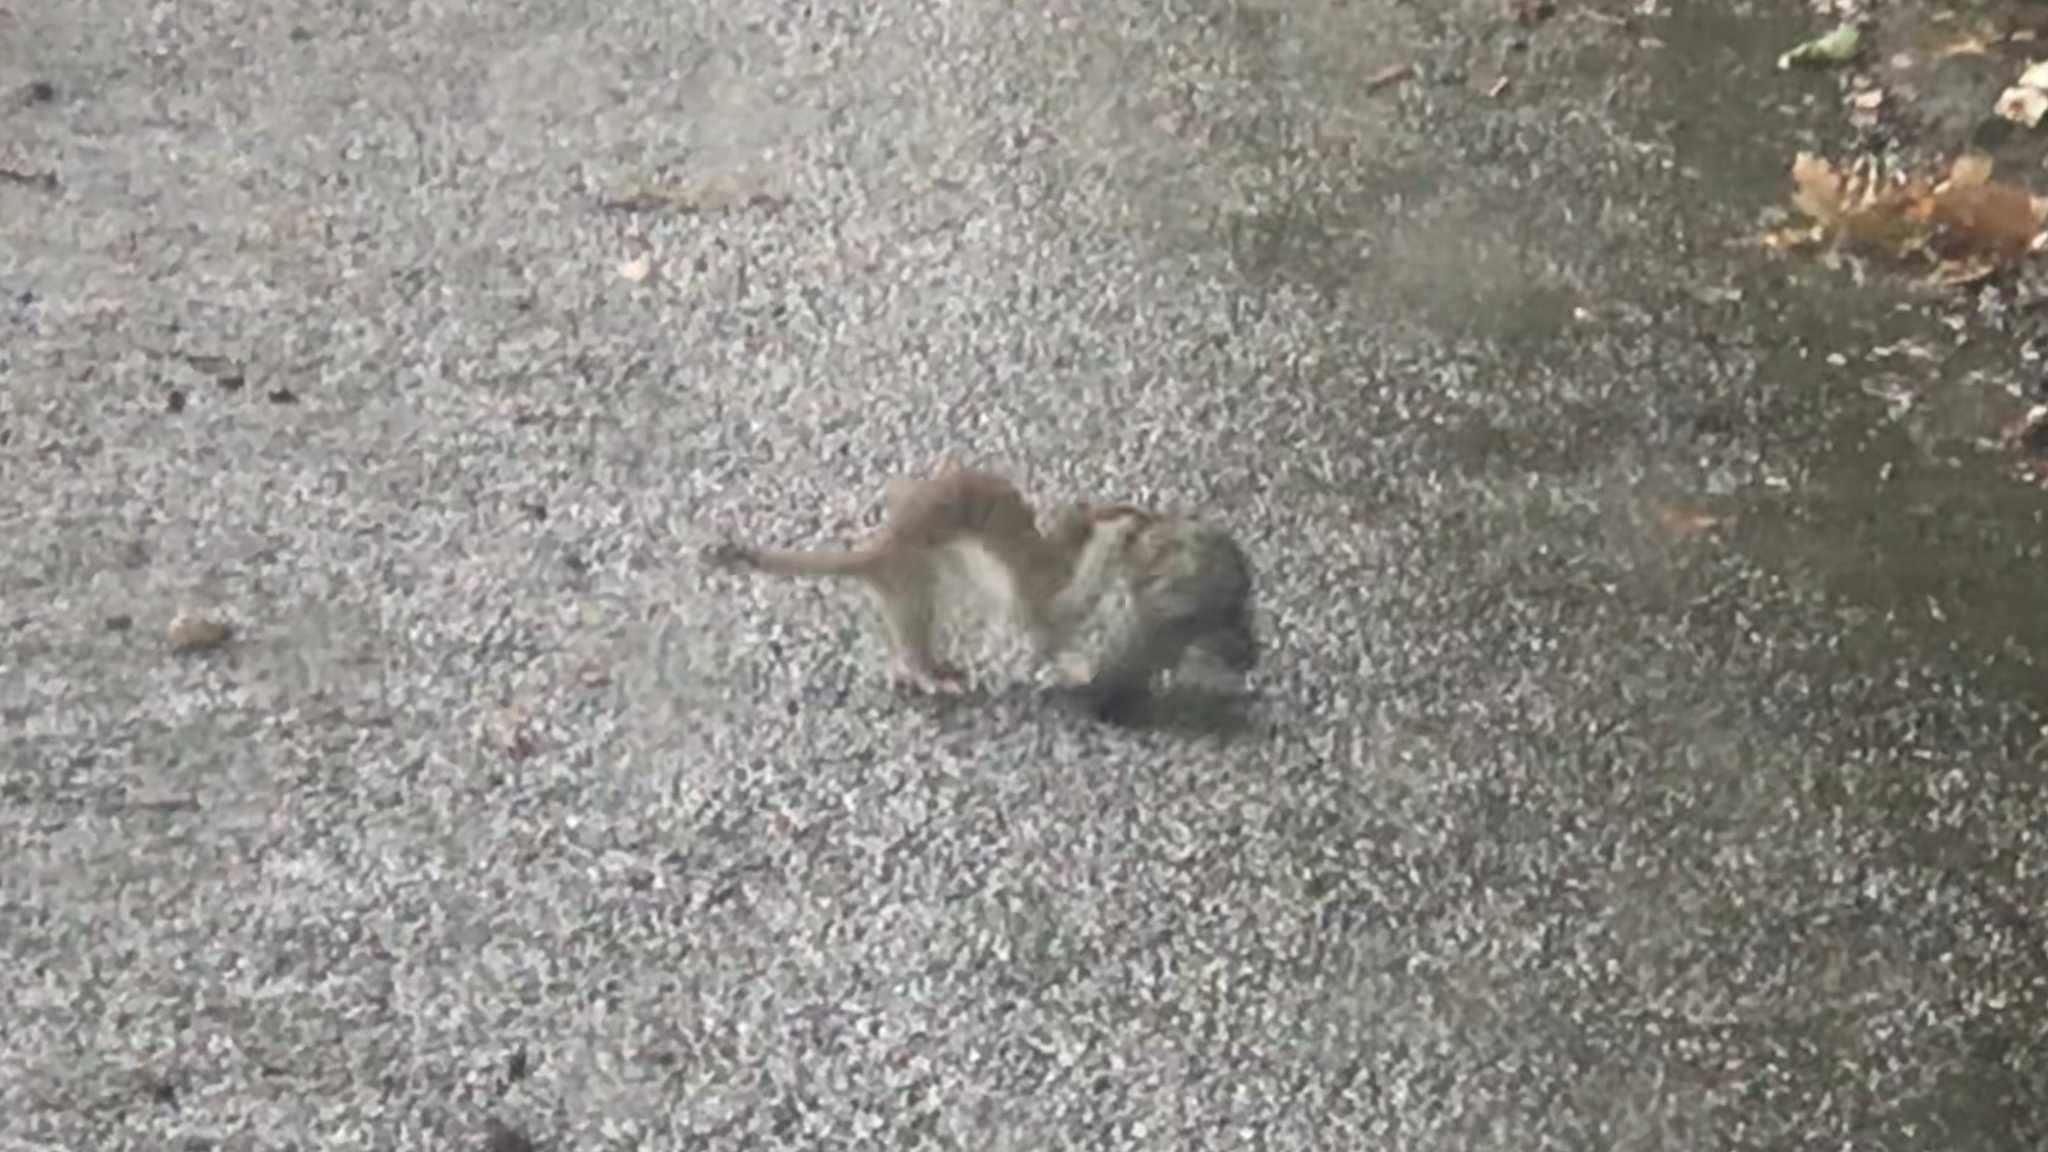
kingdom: Animalia
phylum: Chordata
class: Mammalia
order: Carnivora
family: Mustelidae
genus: Mustela
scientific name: Mustela erminea
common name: Stoat
